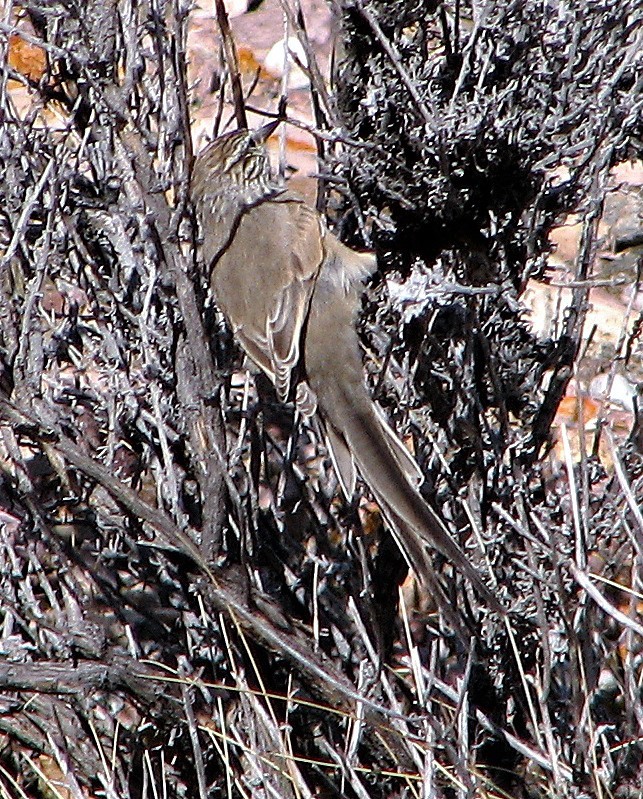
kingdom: Animalia
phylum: Chordata
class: Aves
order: Passeriformes
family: Furnariidae
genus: Leptasthenura
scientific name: Leptasthenura aegithaloides
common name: Plain-mantled tit-spinetail
